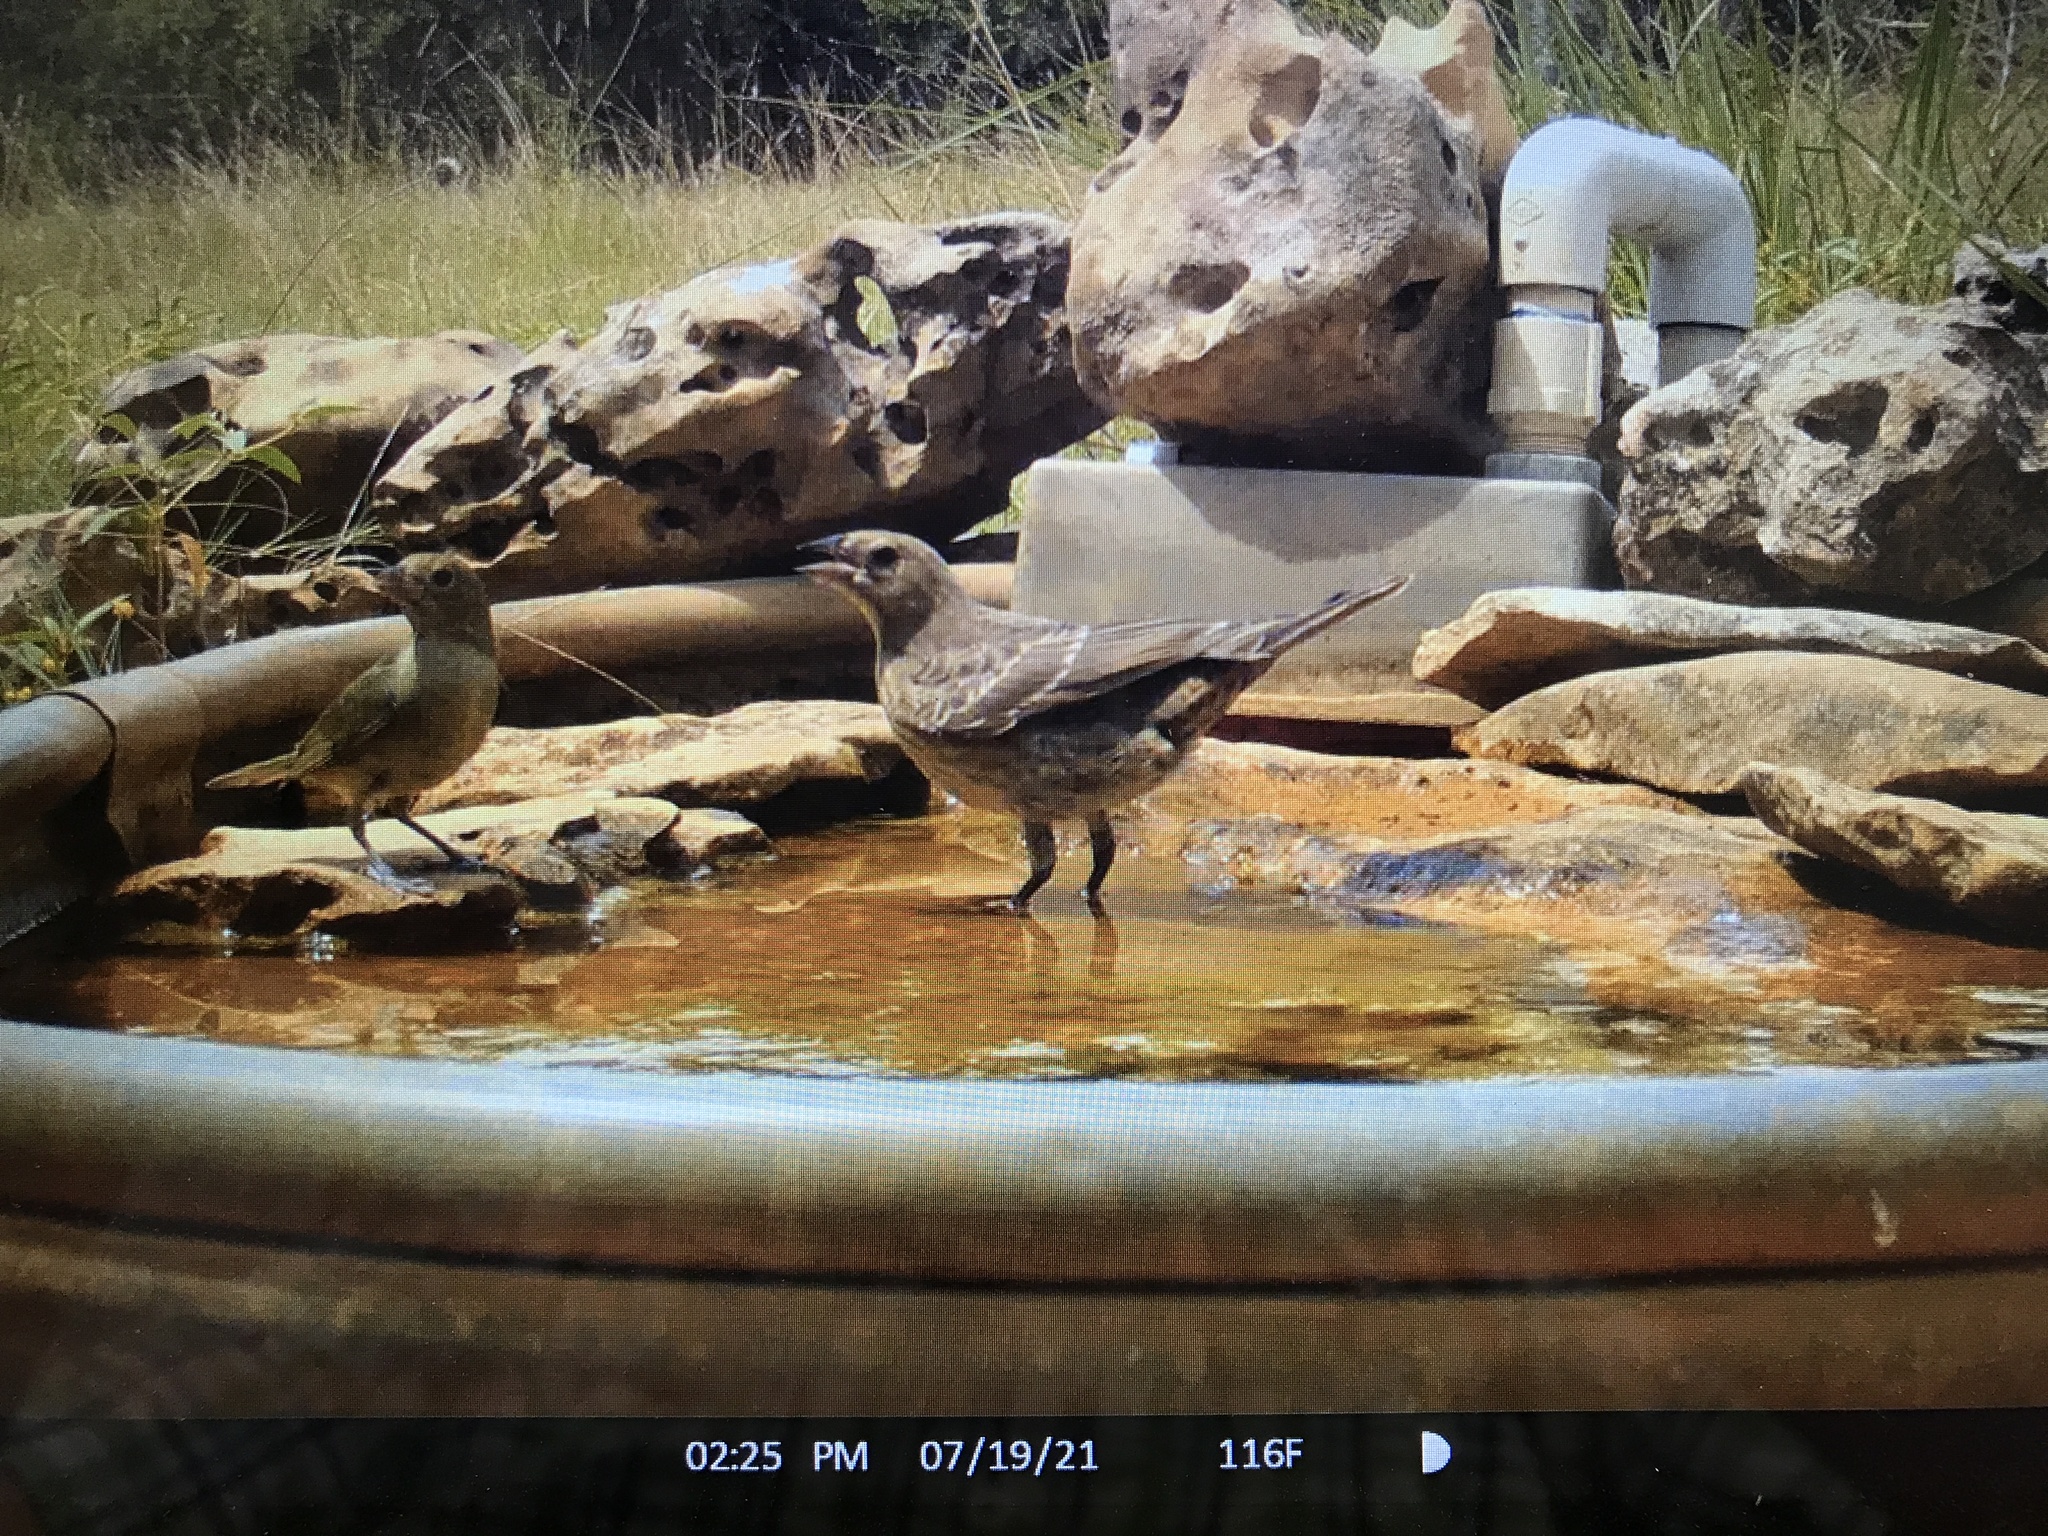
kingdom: Animalia
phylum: Chordata
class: Aves
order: Passeriformes
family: Icteridae
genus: Molothrus
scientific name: Molothrus ater
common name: Brown-headed cowbird
